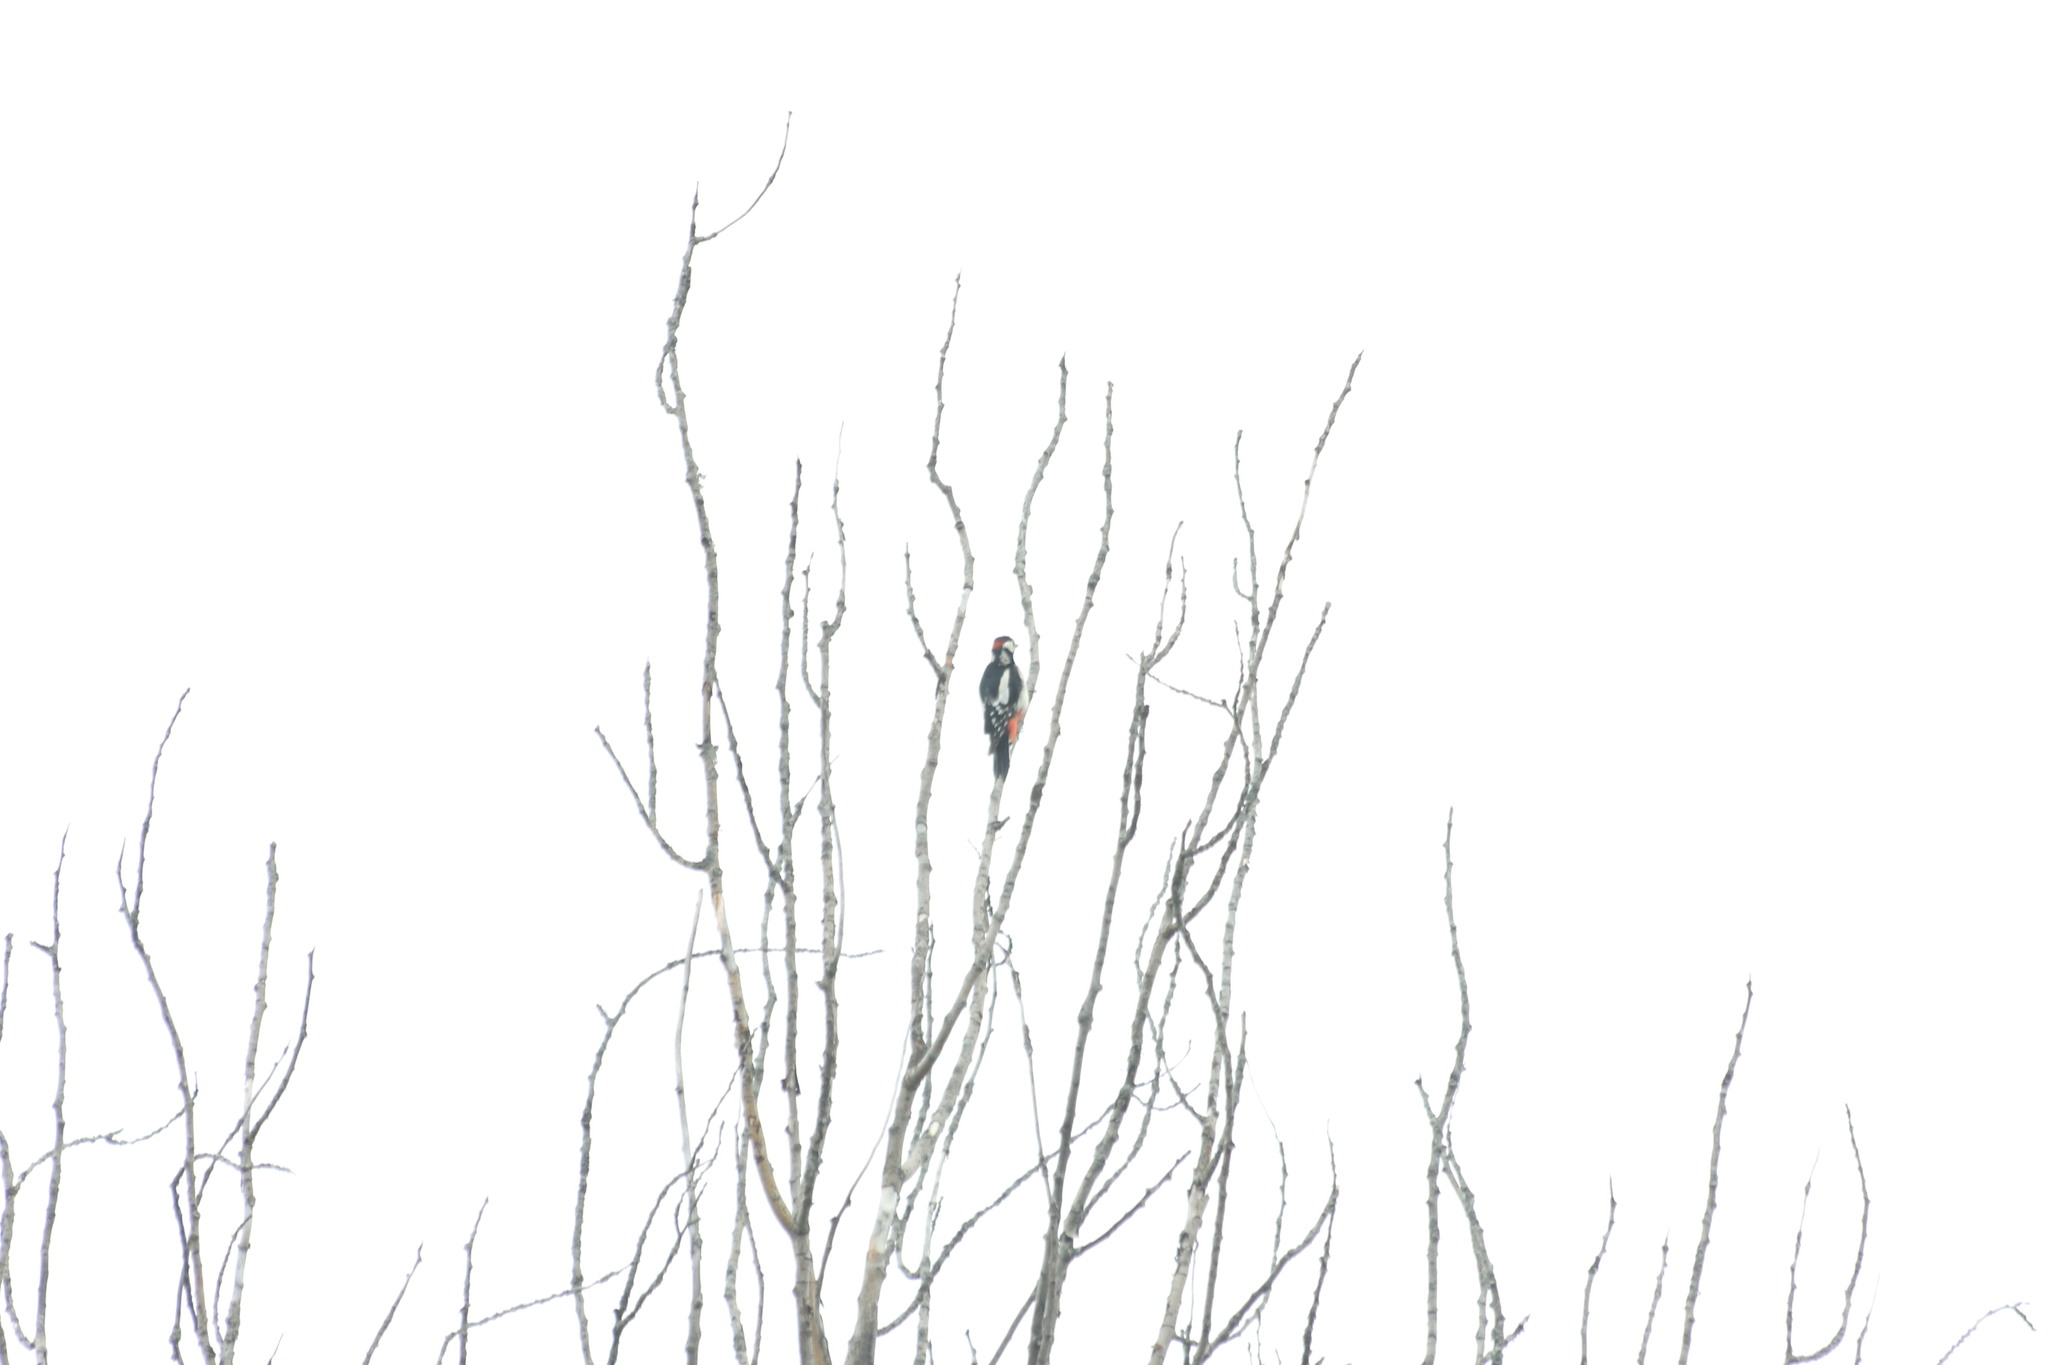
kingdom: Animalia
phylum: Chordata
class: Aves
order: Piciformes
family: Picidae
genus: Dendrocopos
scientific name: Dendrocopos major
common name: Great spotted woodpecker
